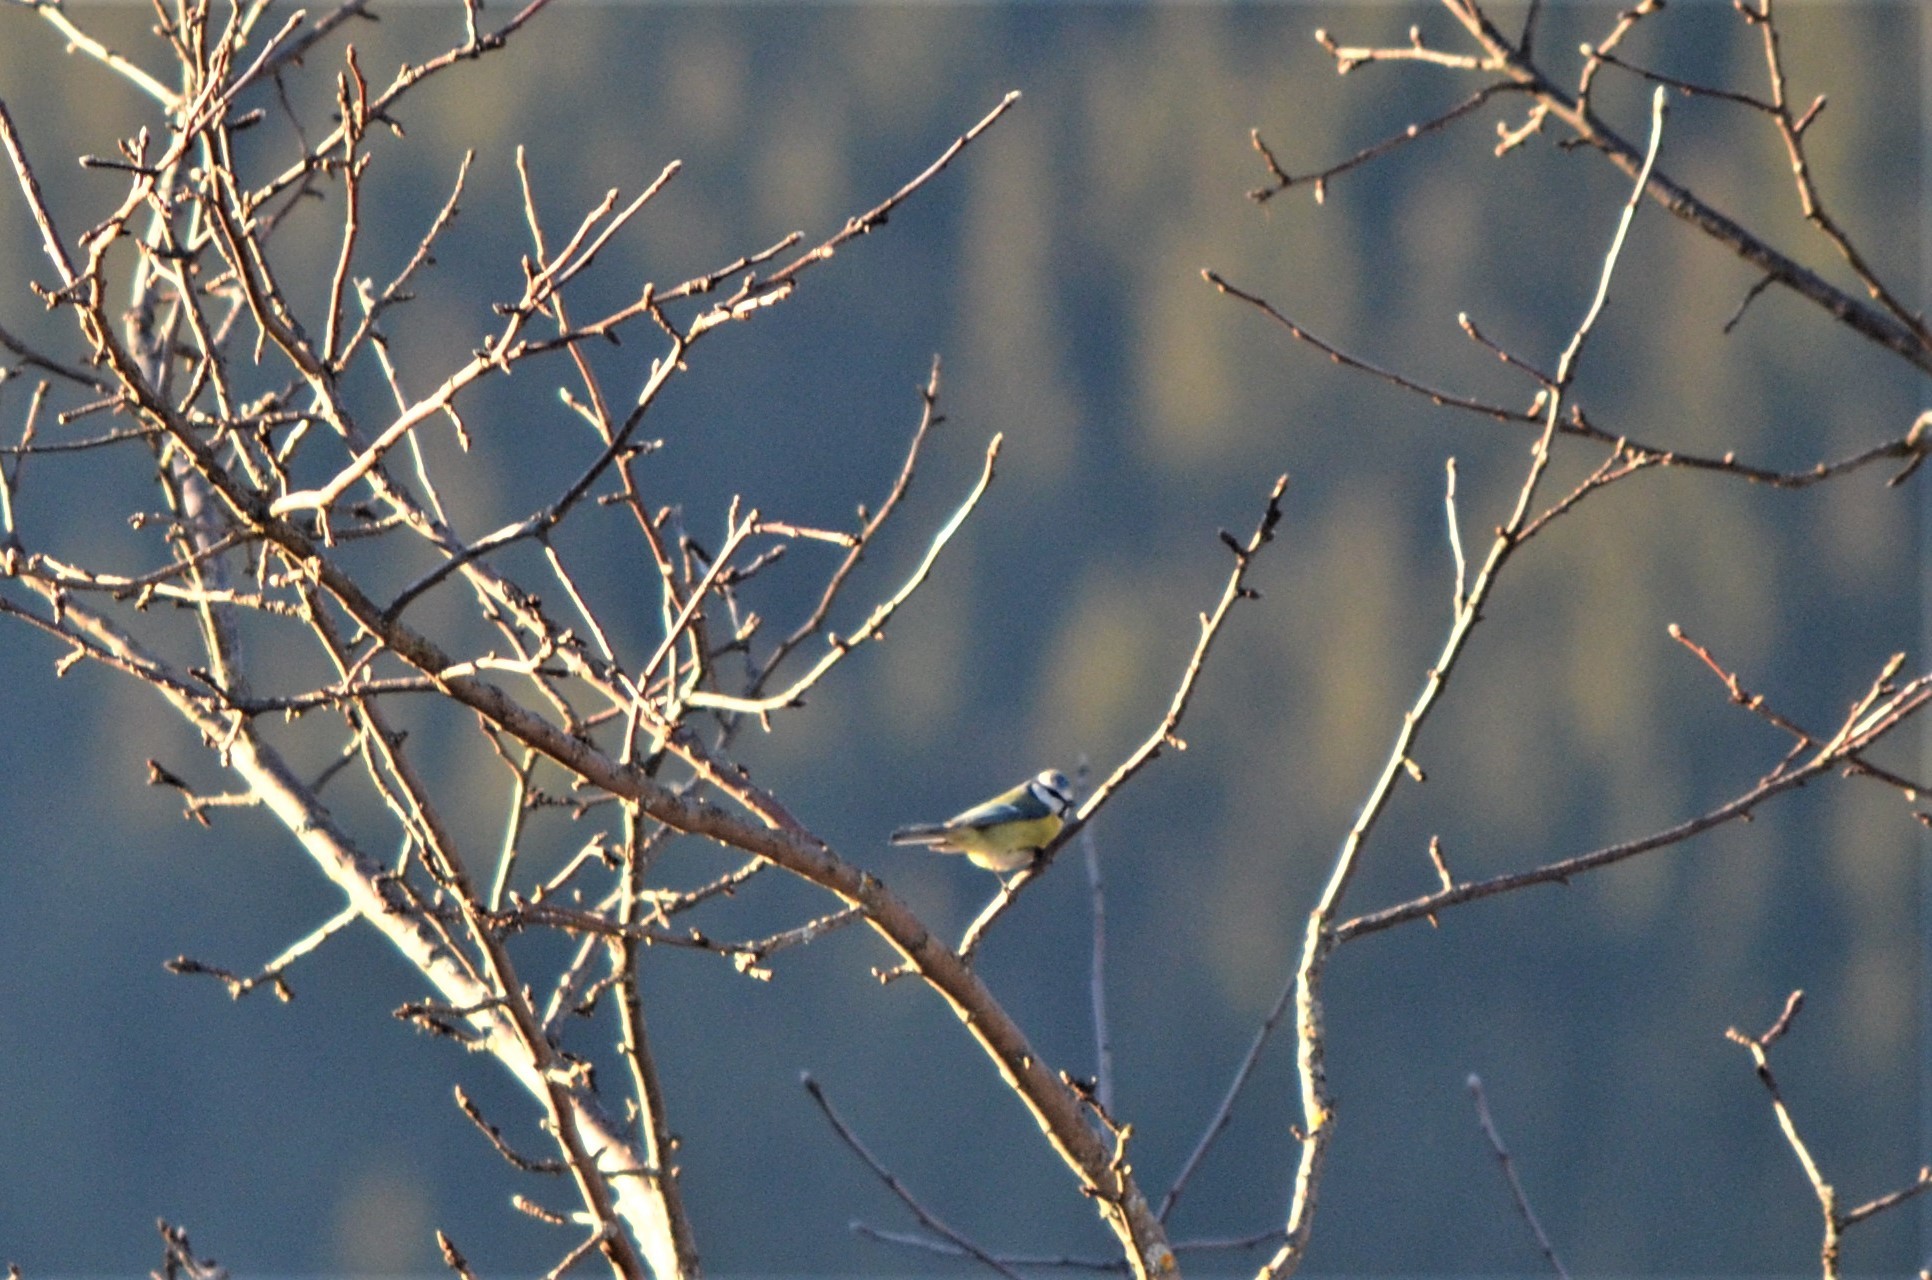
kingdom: Animalia
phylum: Chordata
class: Aves
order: Passeriformes
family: Paridae
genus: Cyanistes
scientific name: Cyanistes caeruleus
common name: Eurasian blue tit
